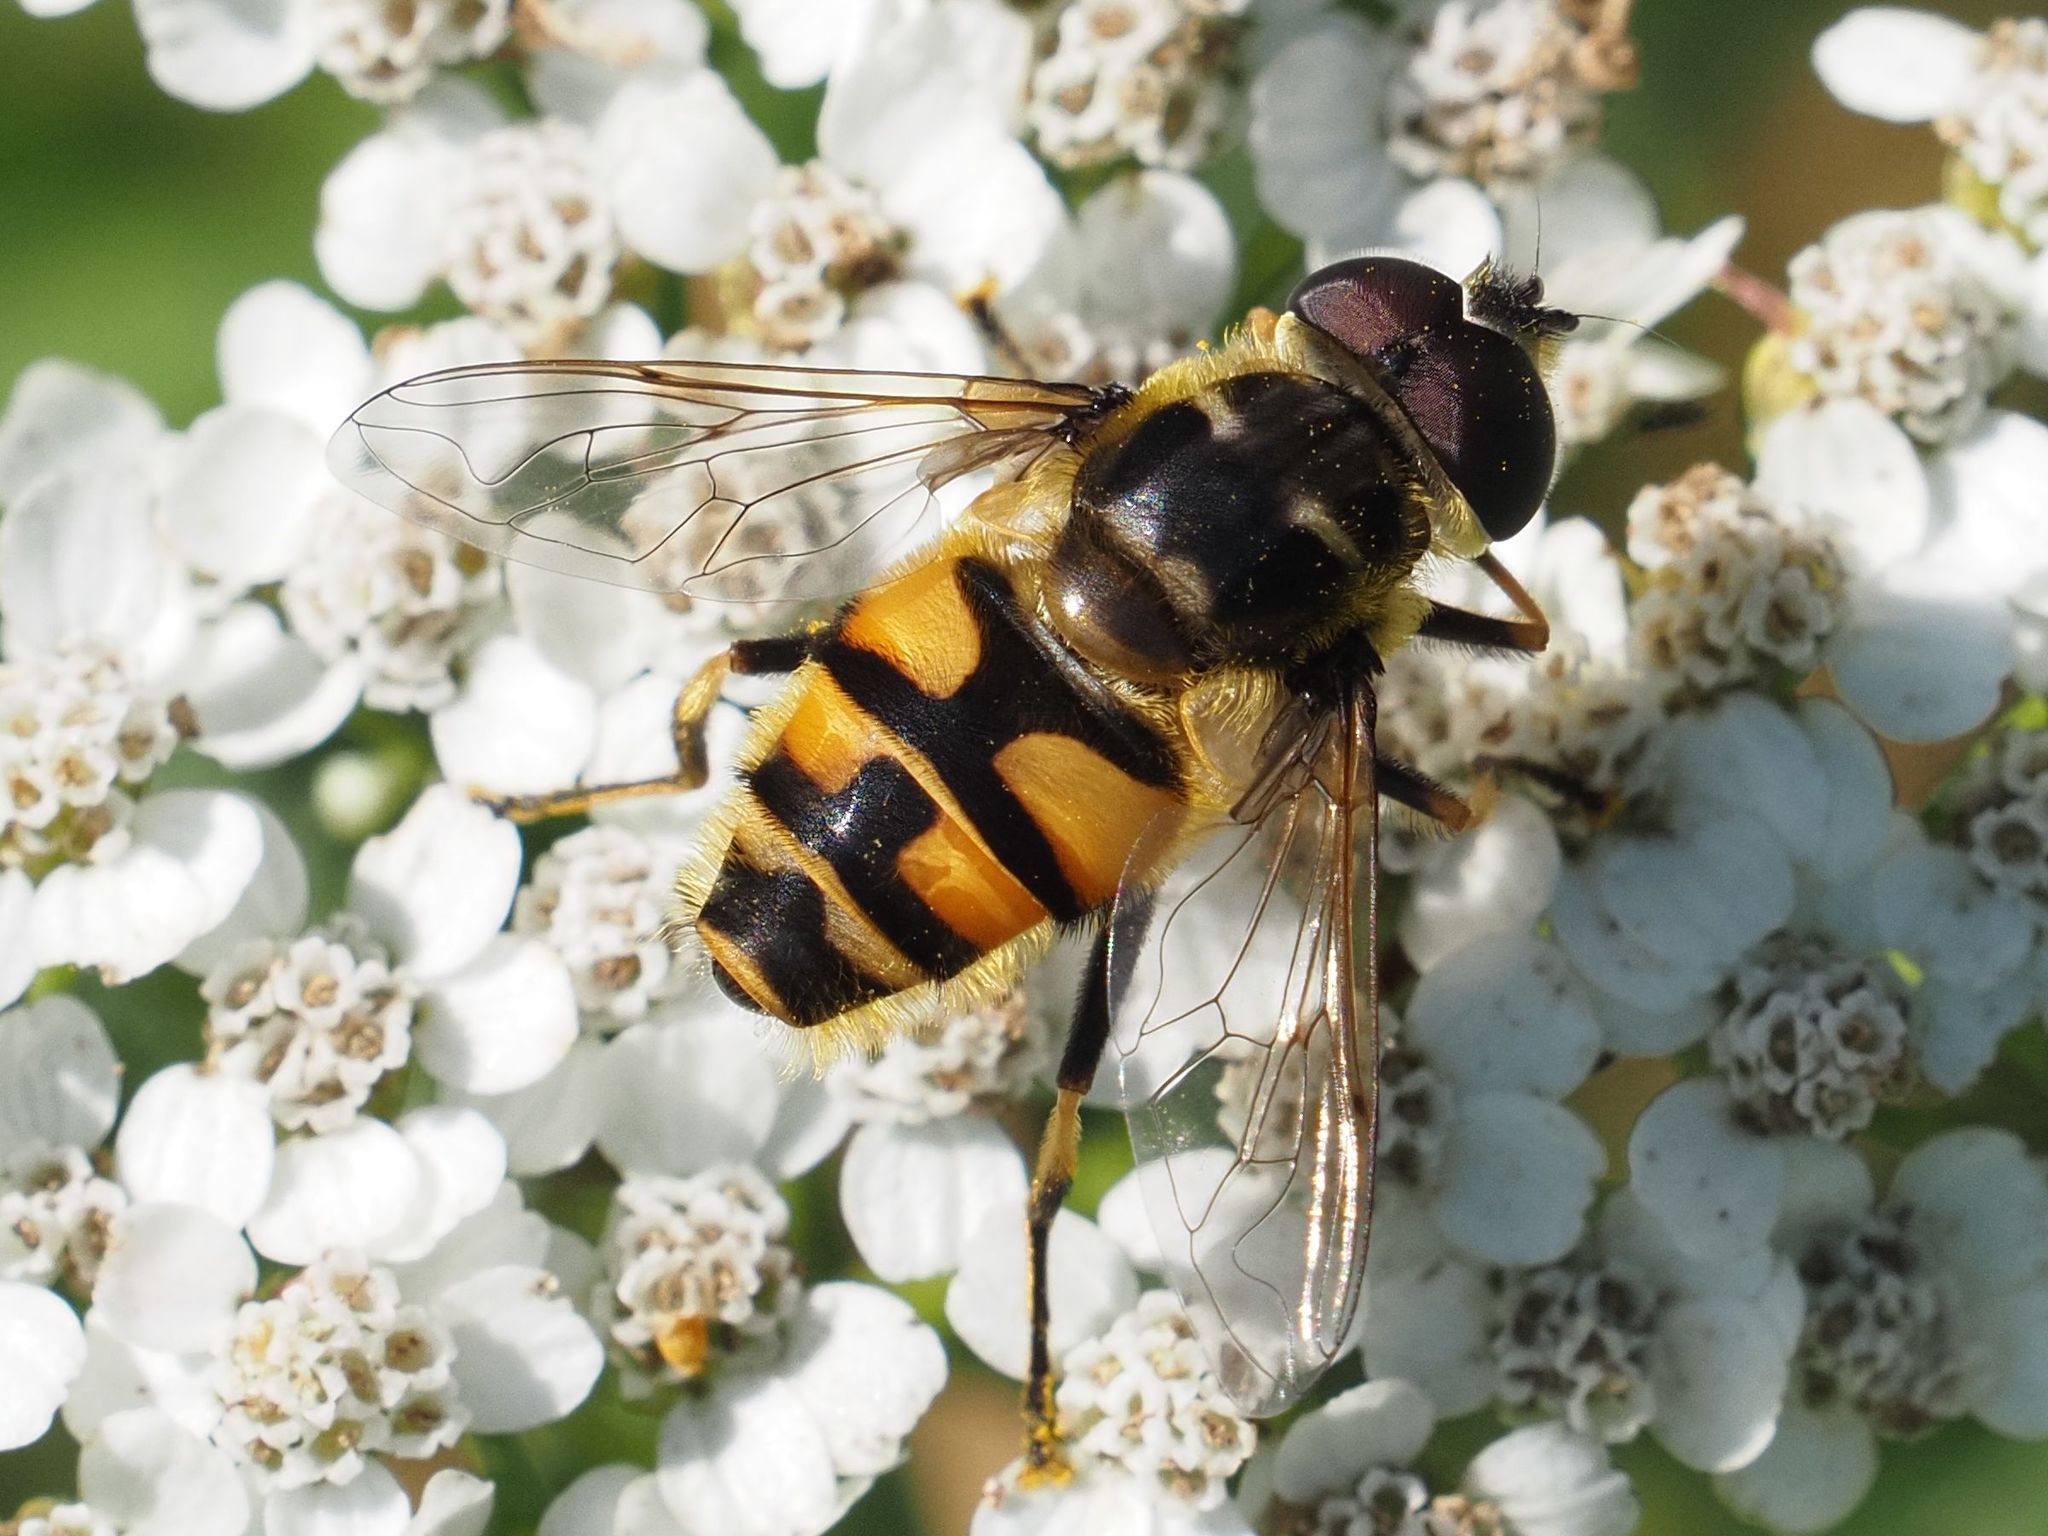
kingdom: Animalia
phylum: Arthropoda
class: Insecta
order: Diptera
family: Syrphidae
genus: Myathropa
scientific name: Myathropa florea
